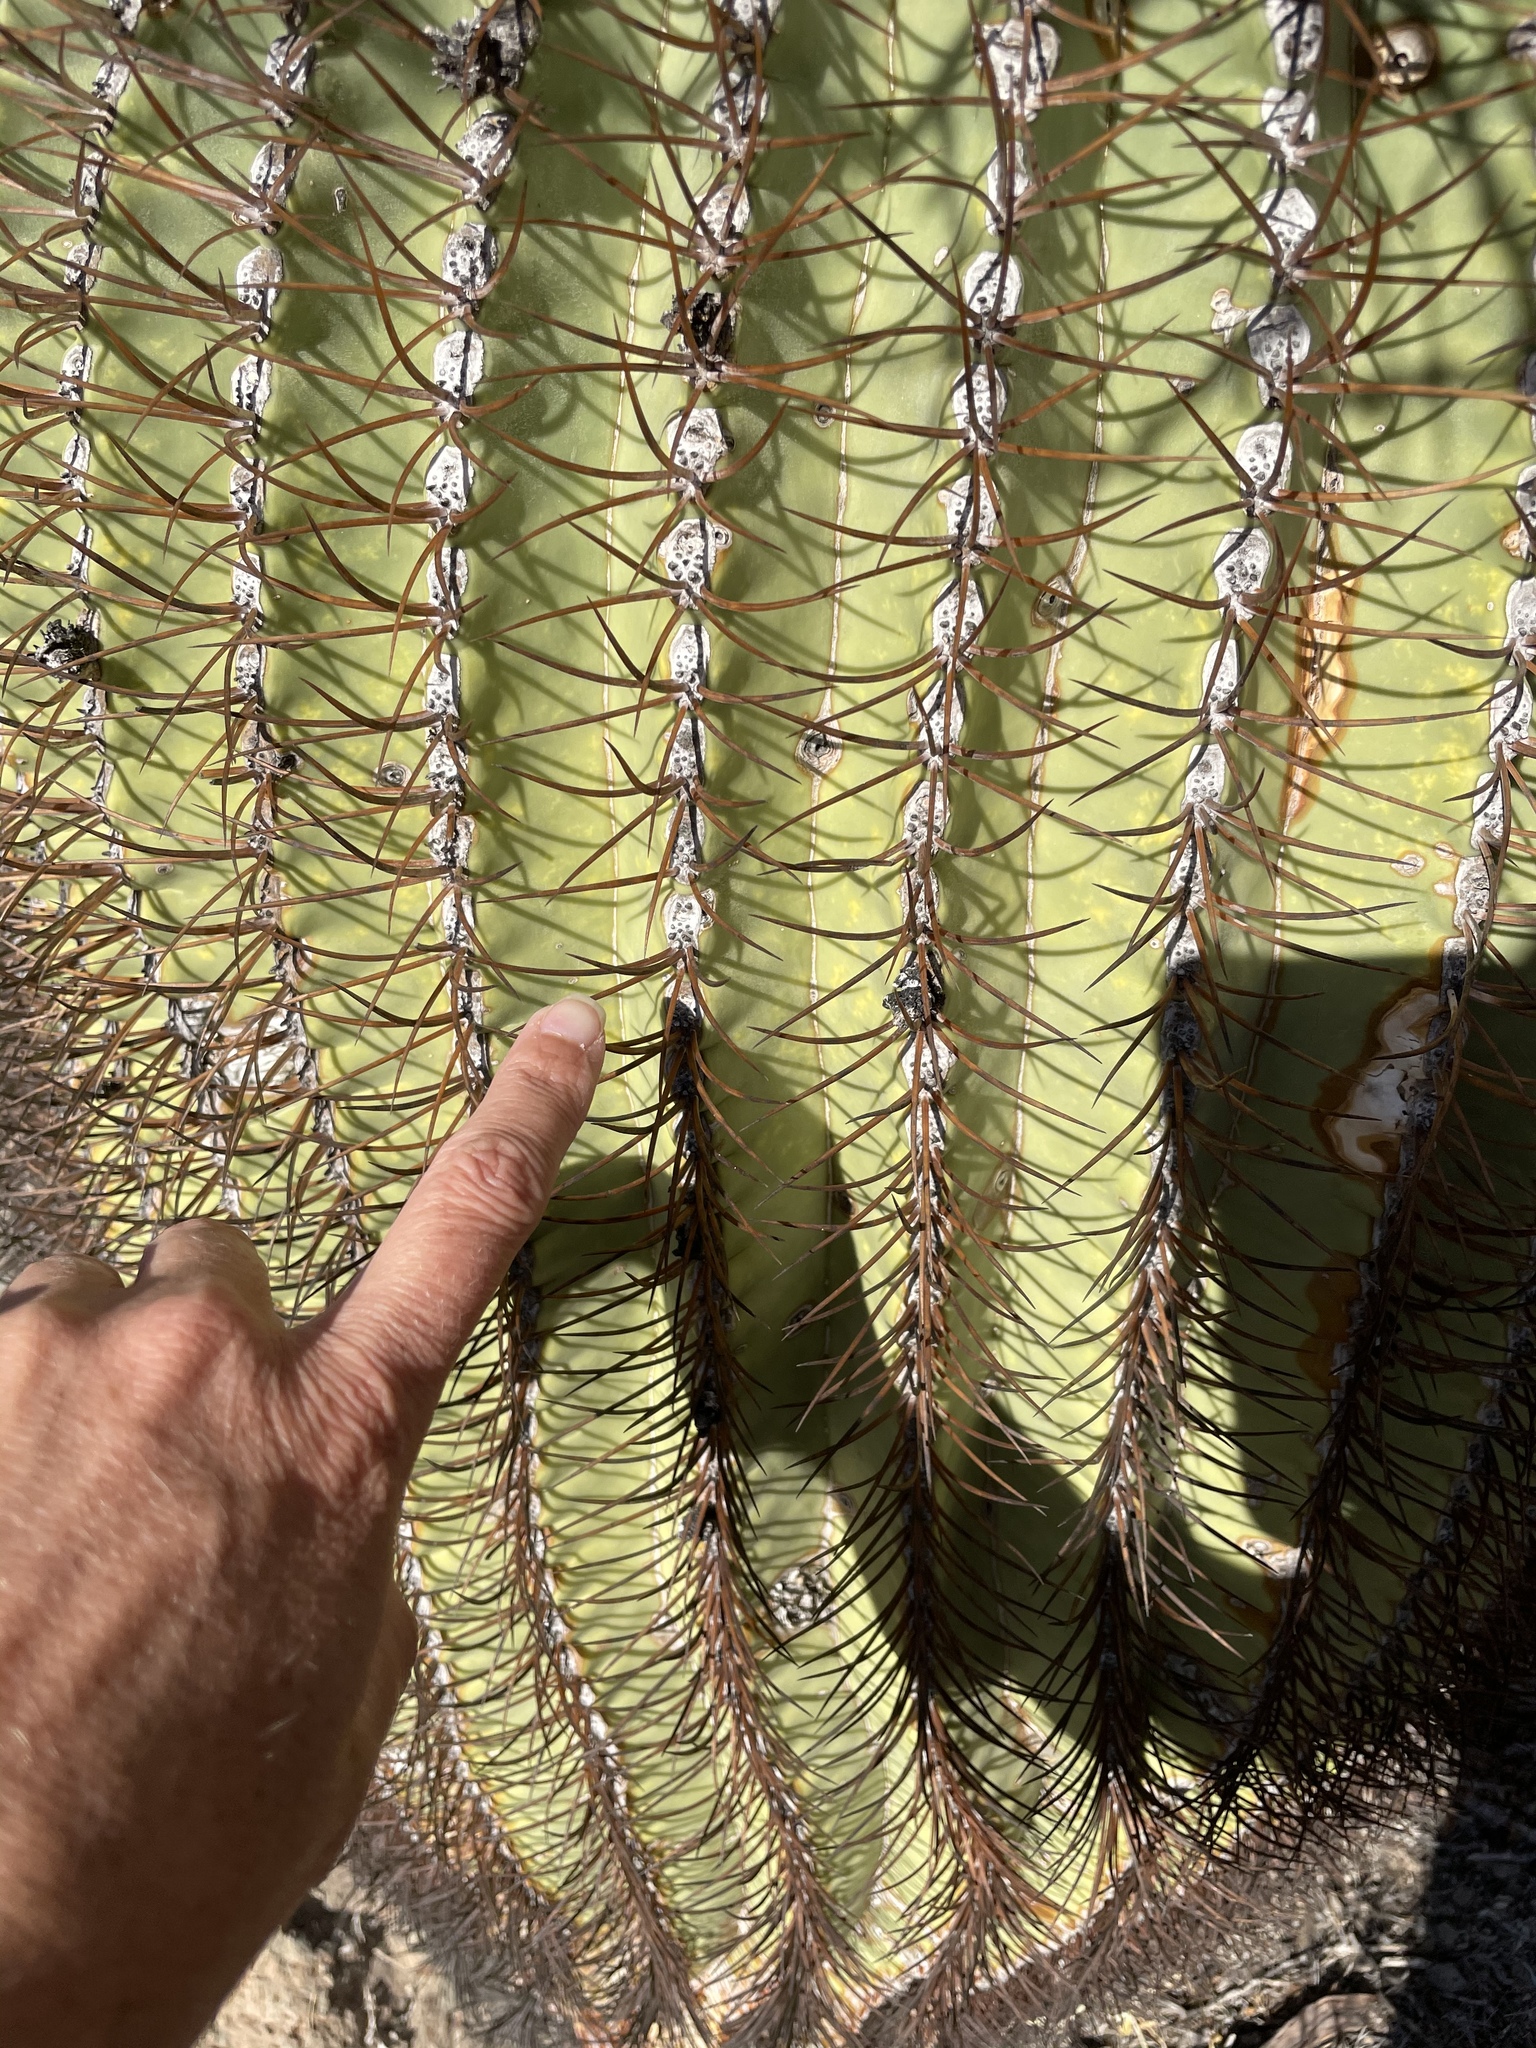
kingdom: Plantae
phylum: Tracheophyta
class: Magnoliopsida
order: Caryophyllales
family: Cactaceae
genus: Ferocactus
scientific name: Ferocactus diguetii
